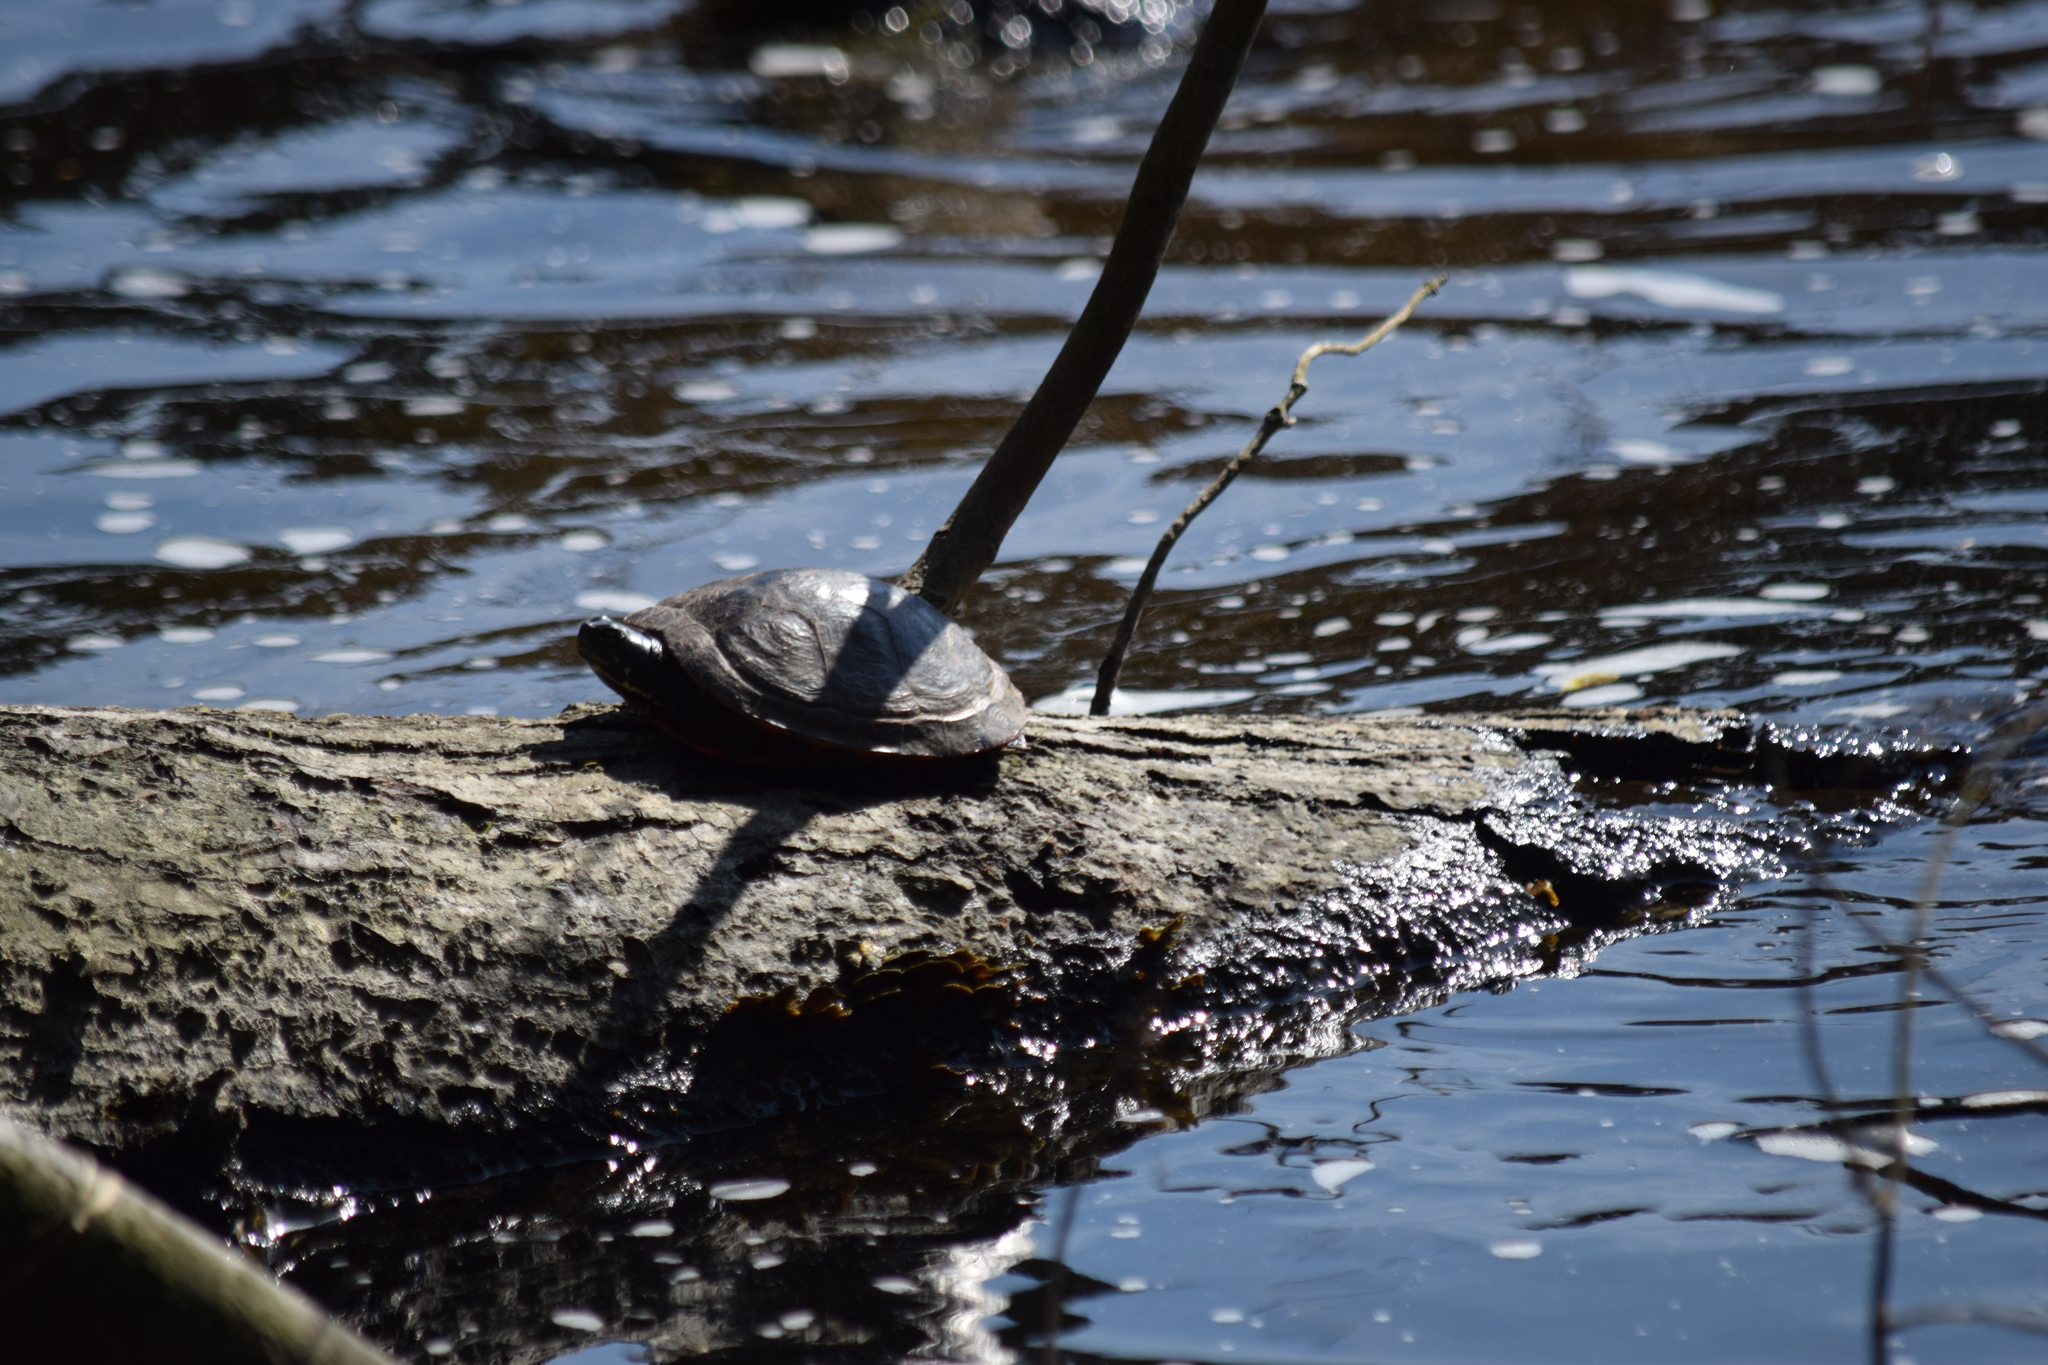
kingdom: Animalia
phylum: Chordata
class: Testudines
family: Emydidae
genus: Trachemys
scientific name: Trachemys scripta
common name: Slider
